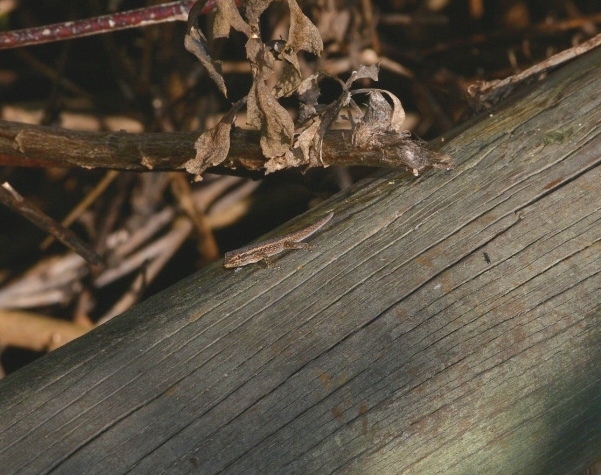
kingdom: Animalia
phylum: Chordata
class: Squamata
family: Gekkonidae
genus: Lygodactylus
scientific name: Lygodactylus capensis
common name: Cape dwarf gecko
